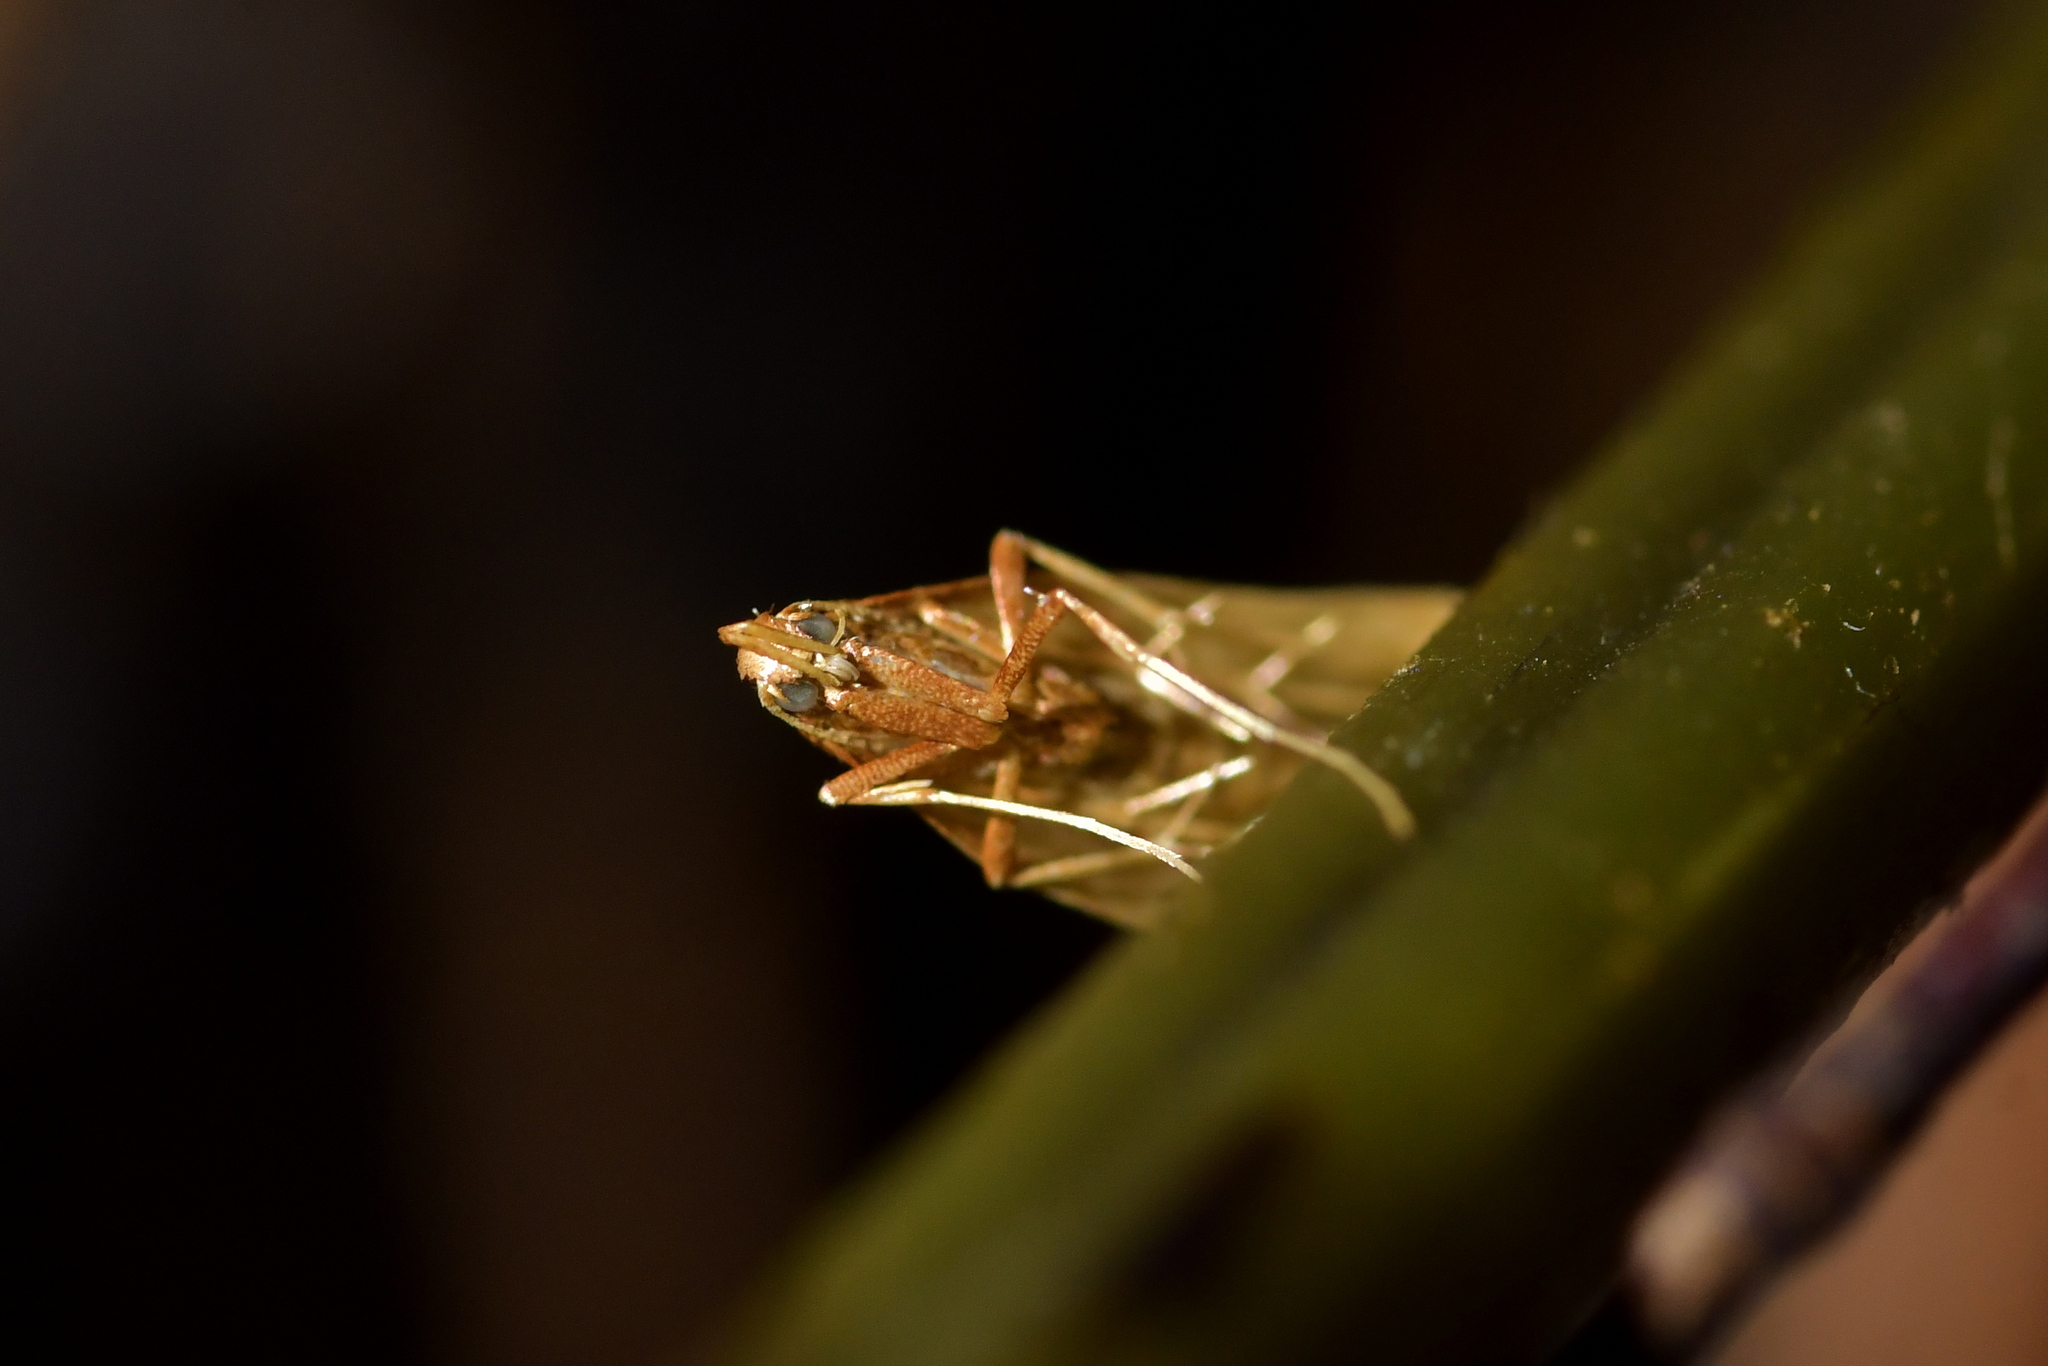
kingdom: Animalia
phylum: Arthropoda
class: Insecta
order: Lepidoptera
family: Epermeniidae
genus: Thambotricha
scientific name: Thambotricha vates
